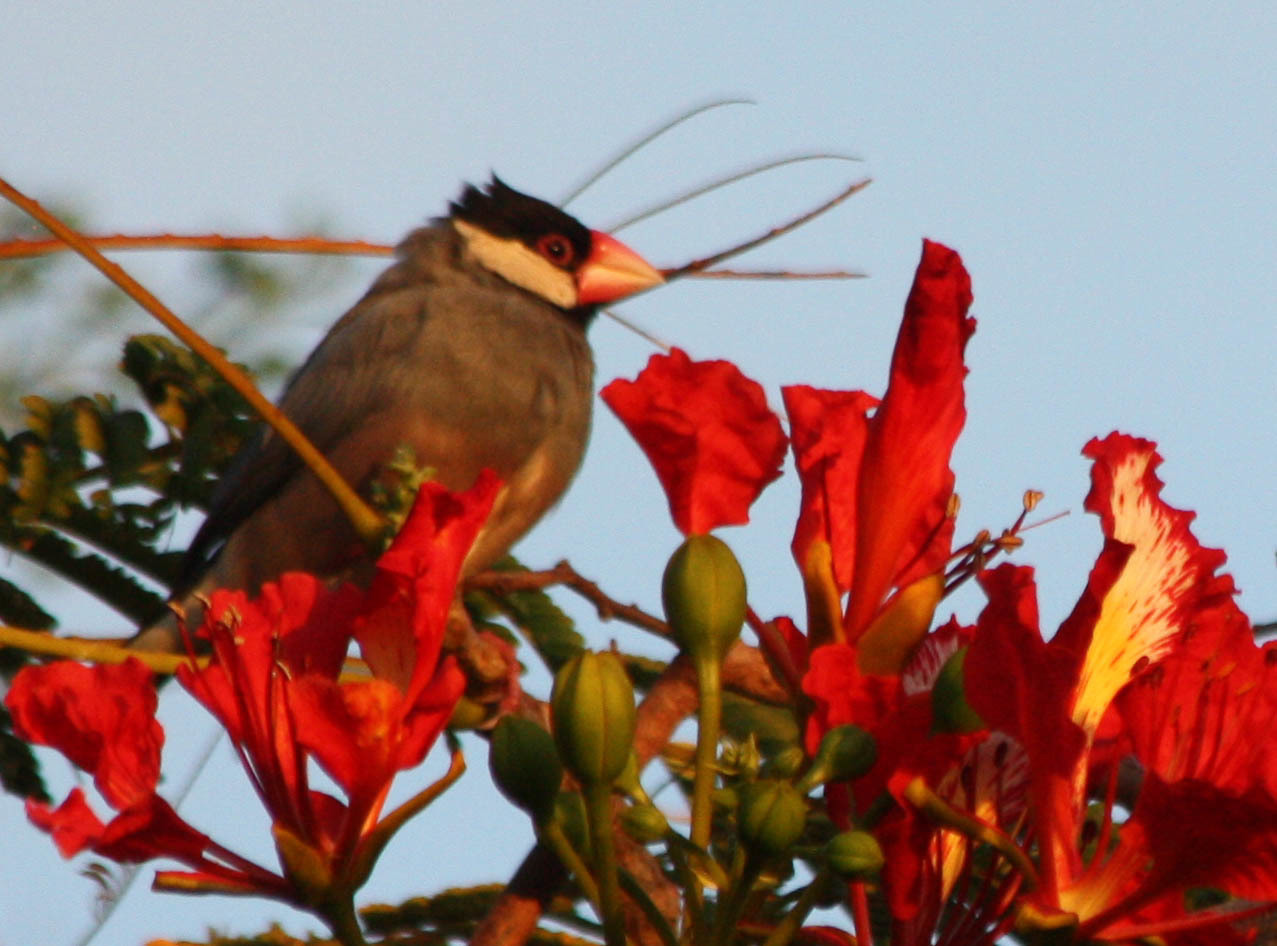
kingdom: Animalia
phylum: Chordata
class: Aves
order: Passeriformes
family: Estrildidae
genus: Lonchura
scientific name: Lonchura oryzivora
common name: Java sparrow
